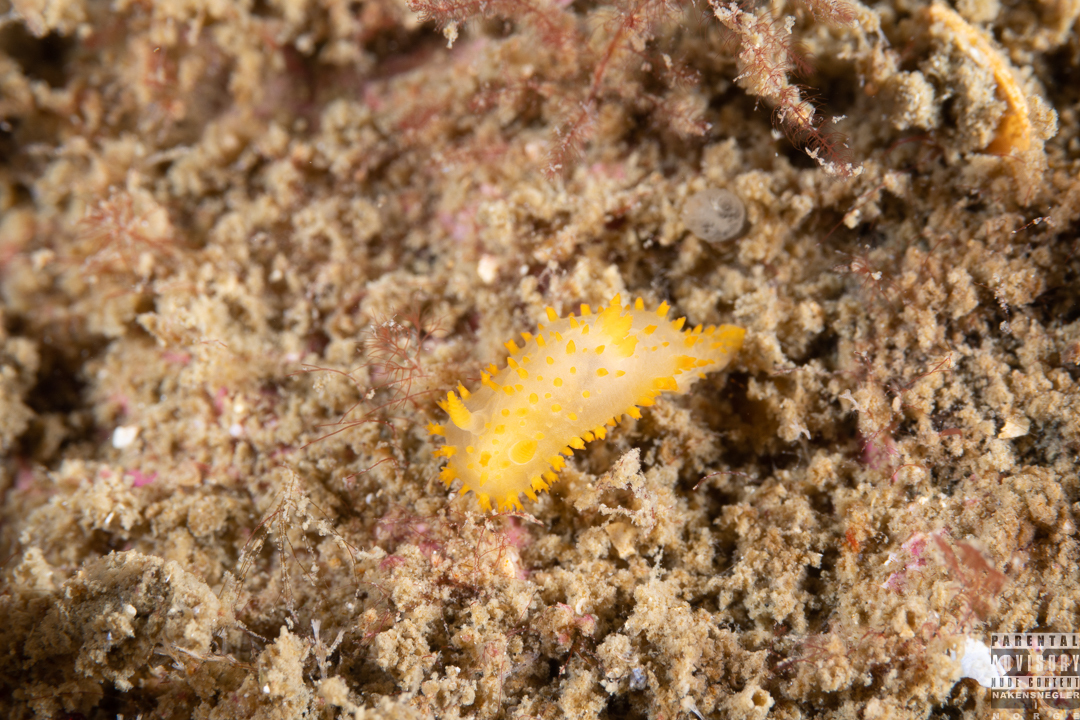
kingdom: Animalia
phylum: Mollusca
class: Gastropoda
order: Nudibranchia
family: Polyceridae
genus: Crimora
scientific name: Crimora papillata
